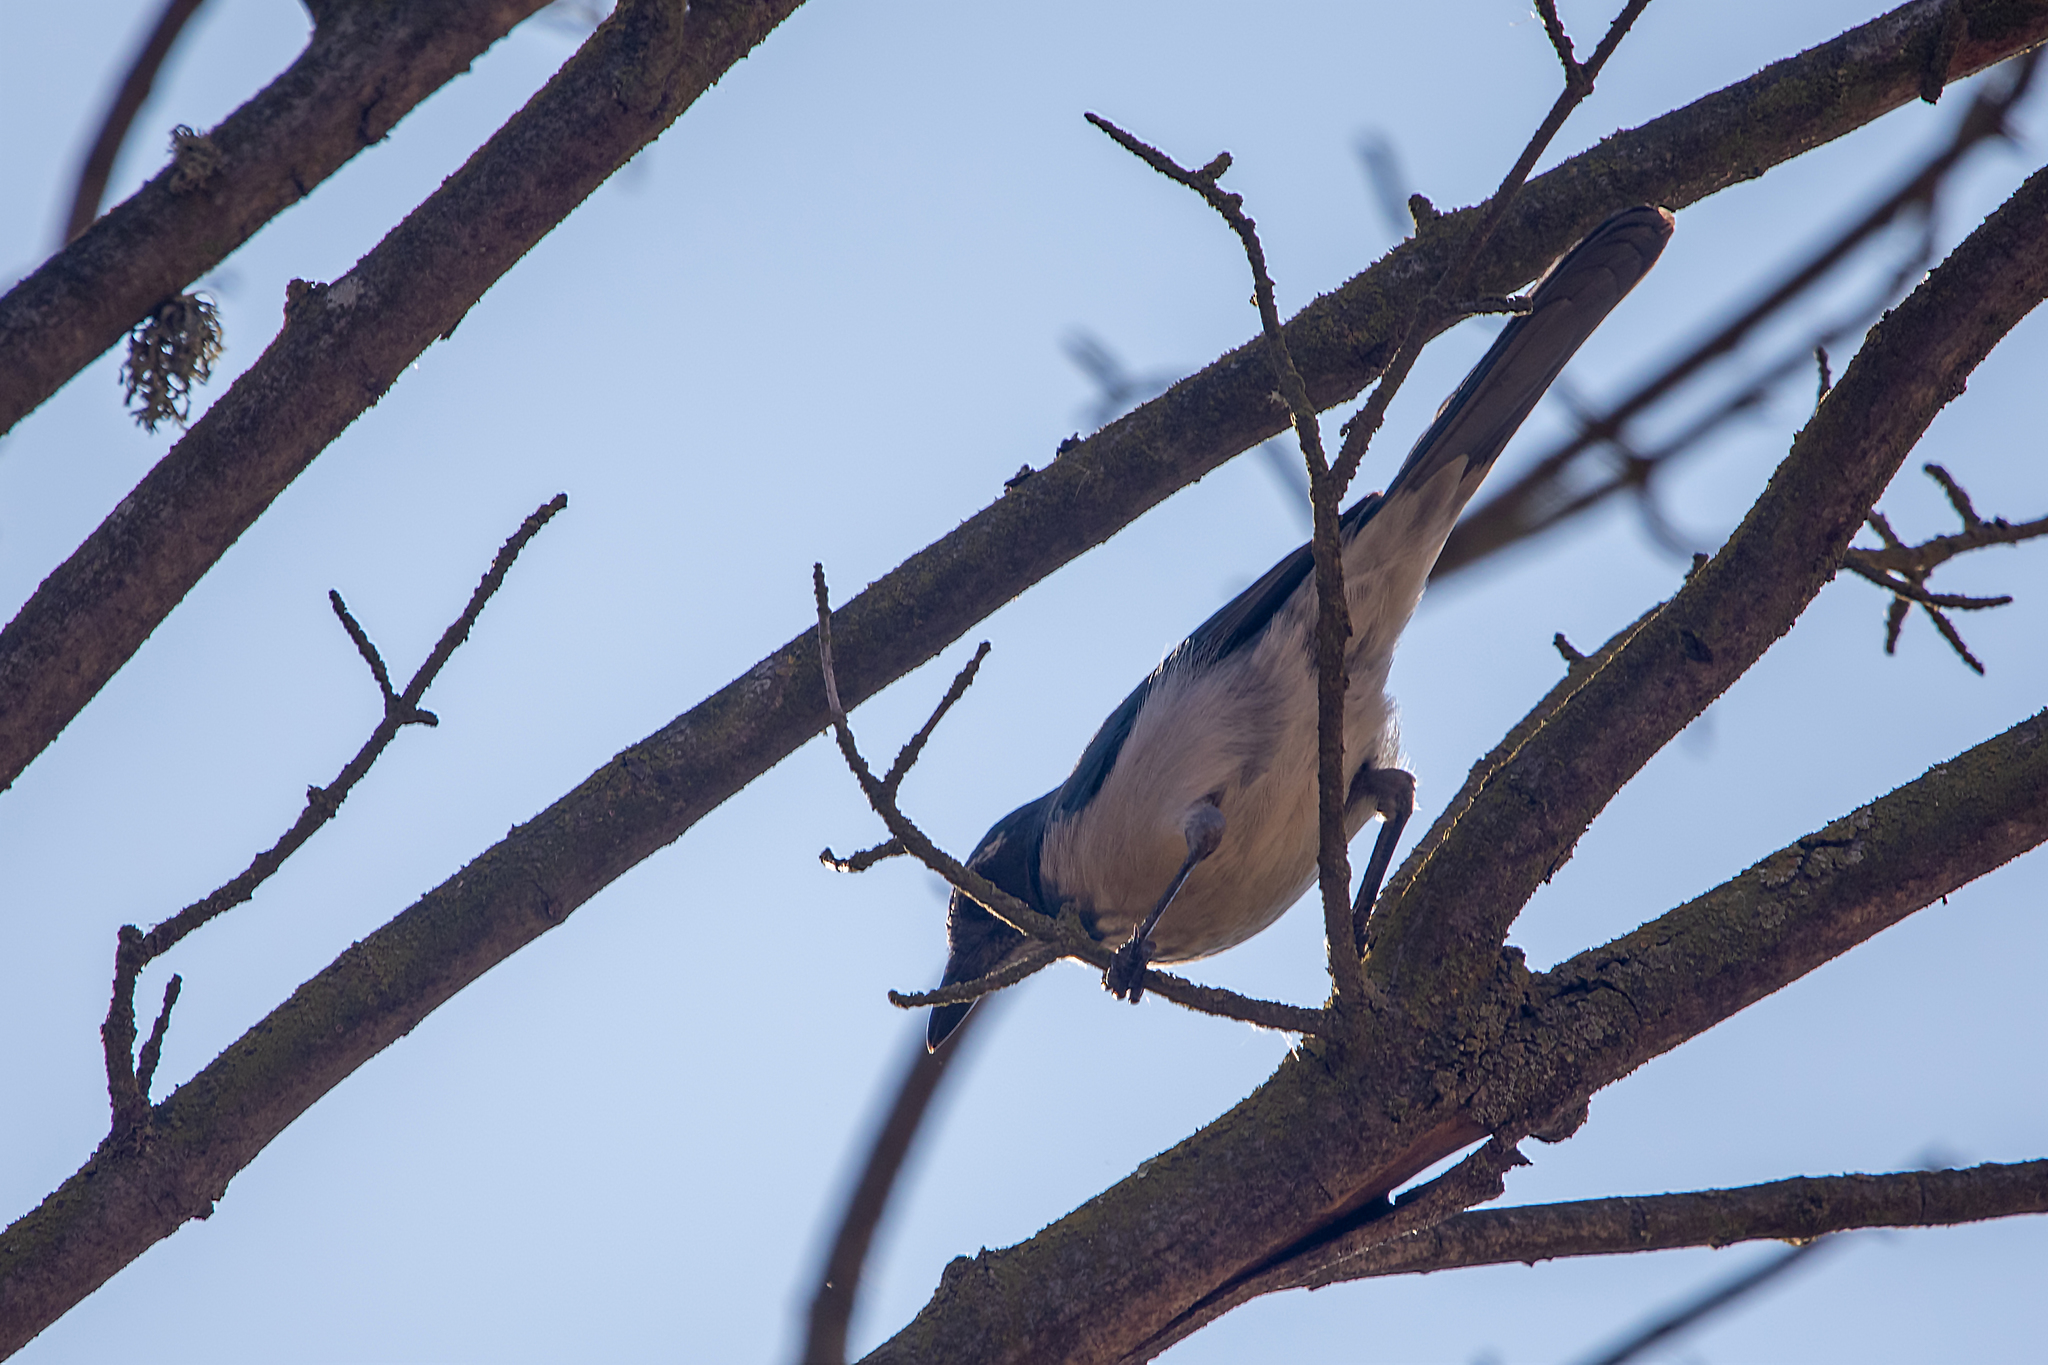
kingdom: Animalia
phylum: Chordata
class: Aves
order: Passeriformes
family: Corvidae
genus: Aphelocoma
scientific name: Aphelocoma californica
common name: California scrub-jay
